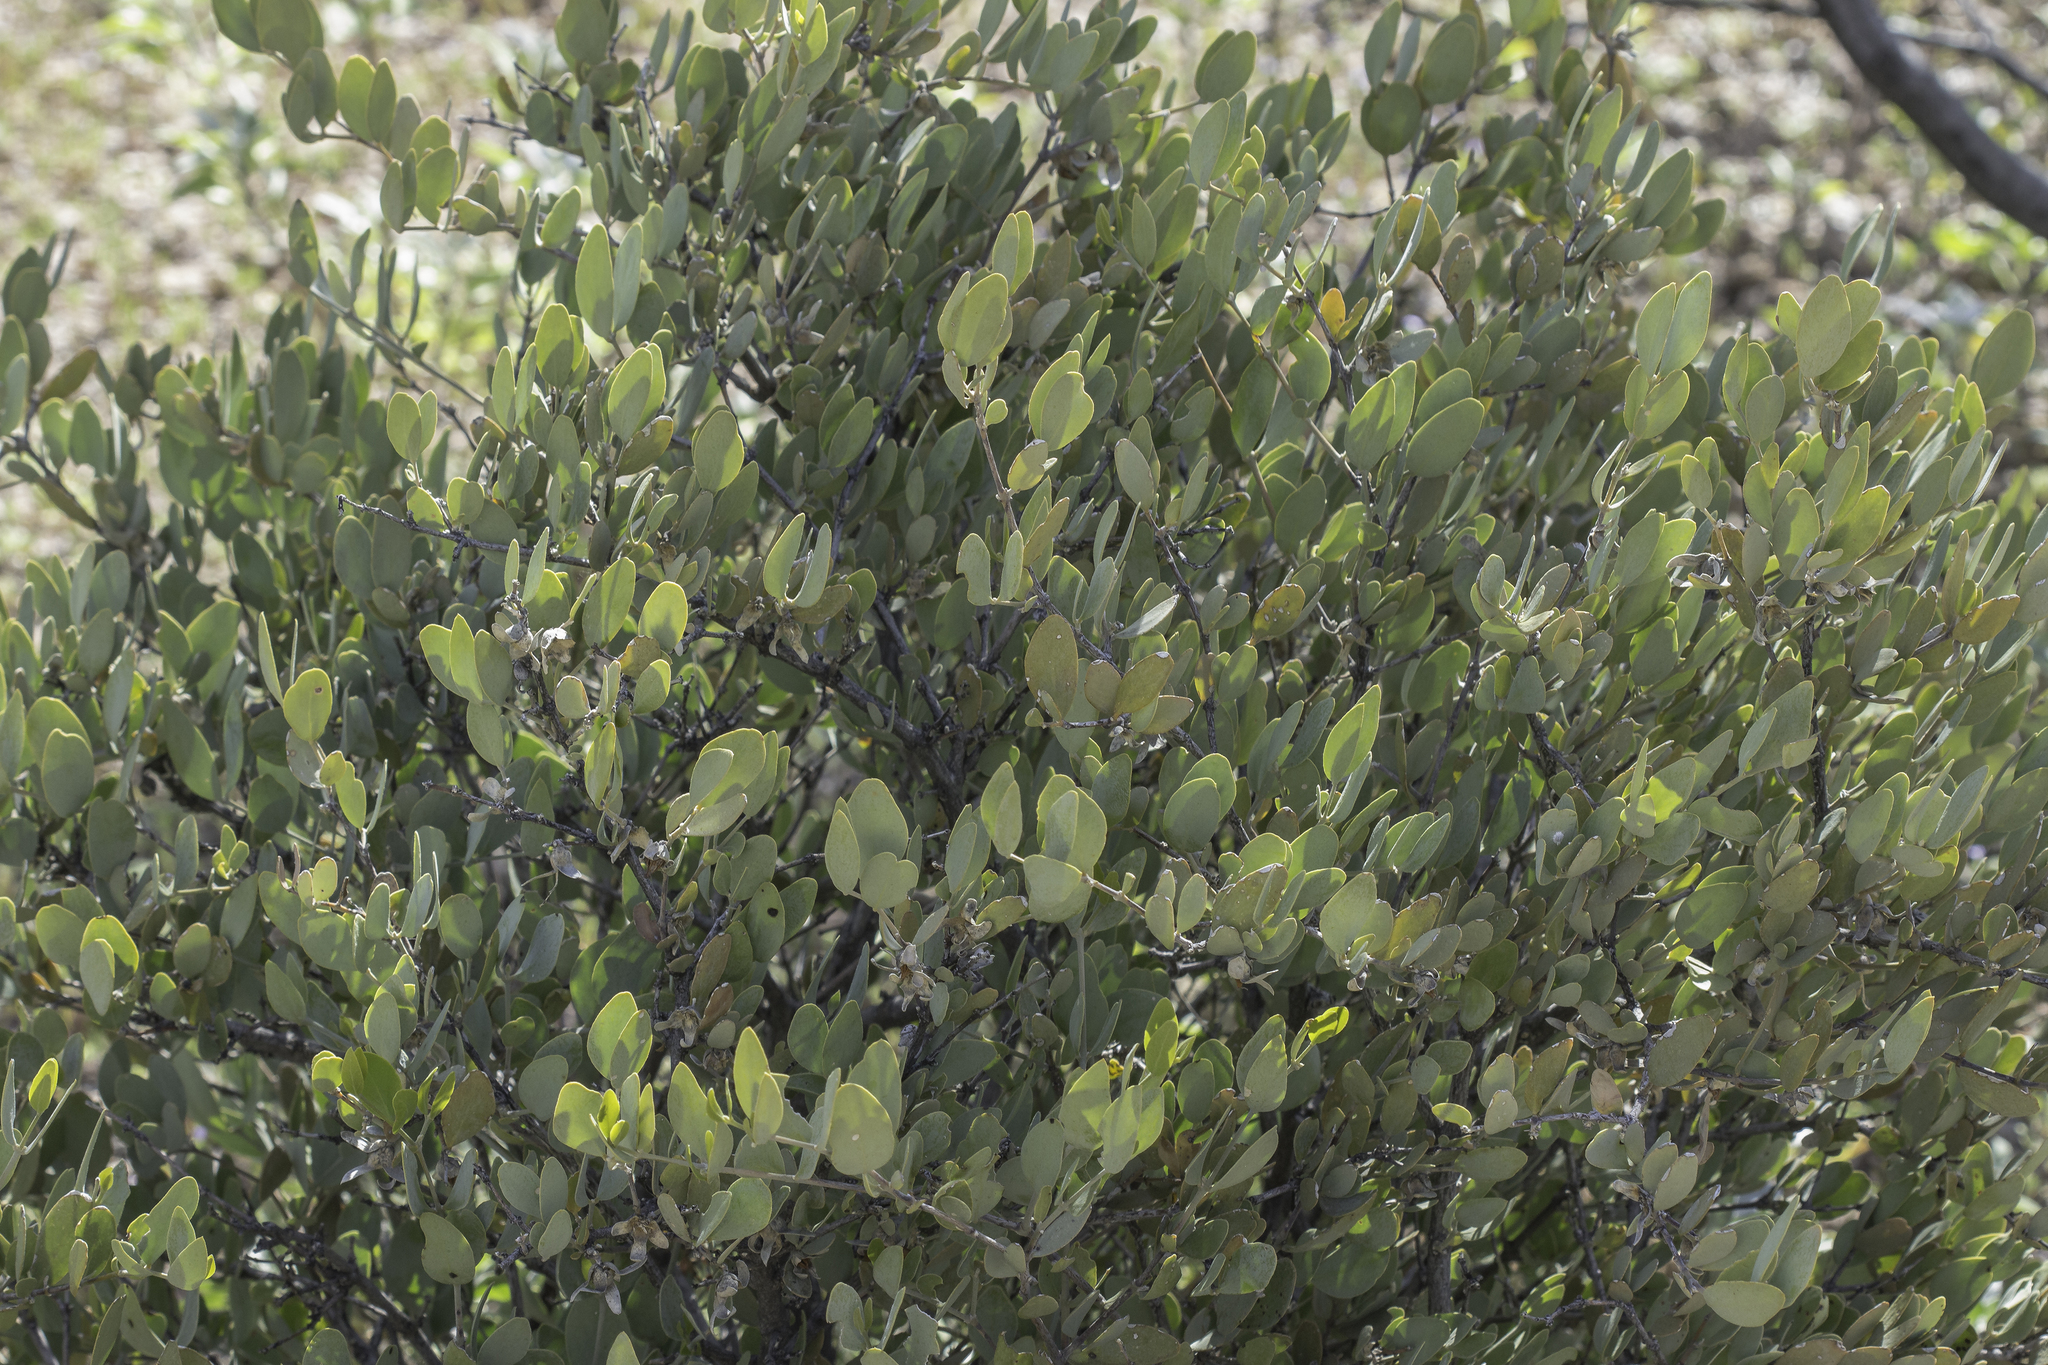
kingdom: Plantae
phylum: Tracheophyta
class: Magnoliopsida
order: Caryophyllales
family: Simmondsiaceae
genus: Simmondsia
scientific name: Simmondsia chinensis
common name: Jojoba
